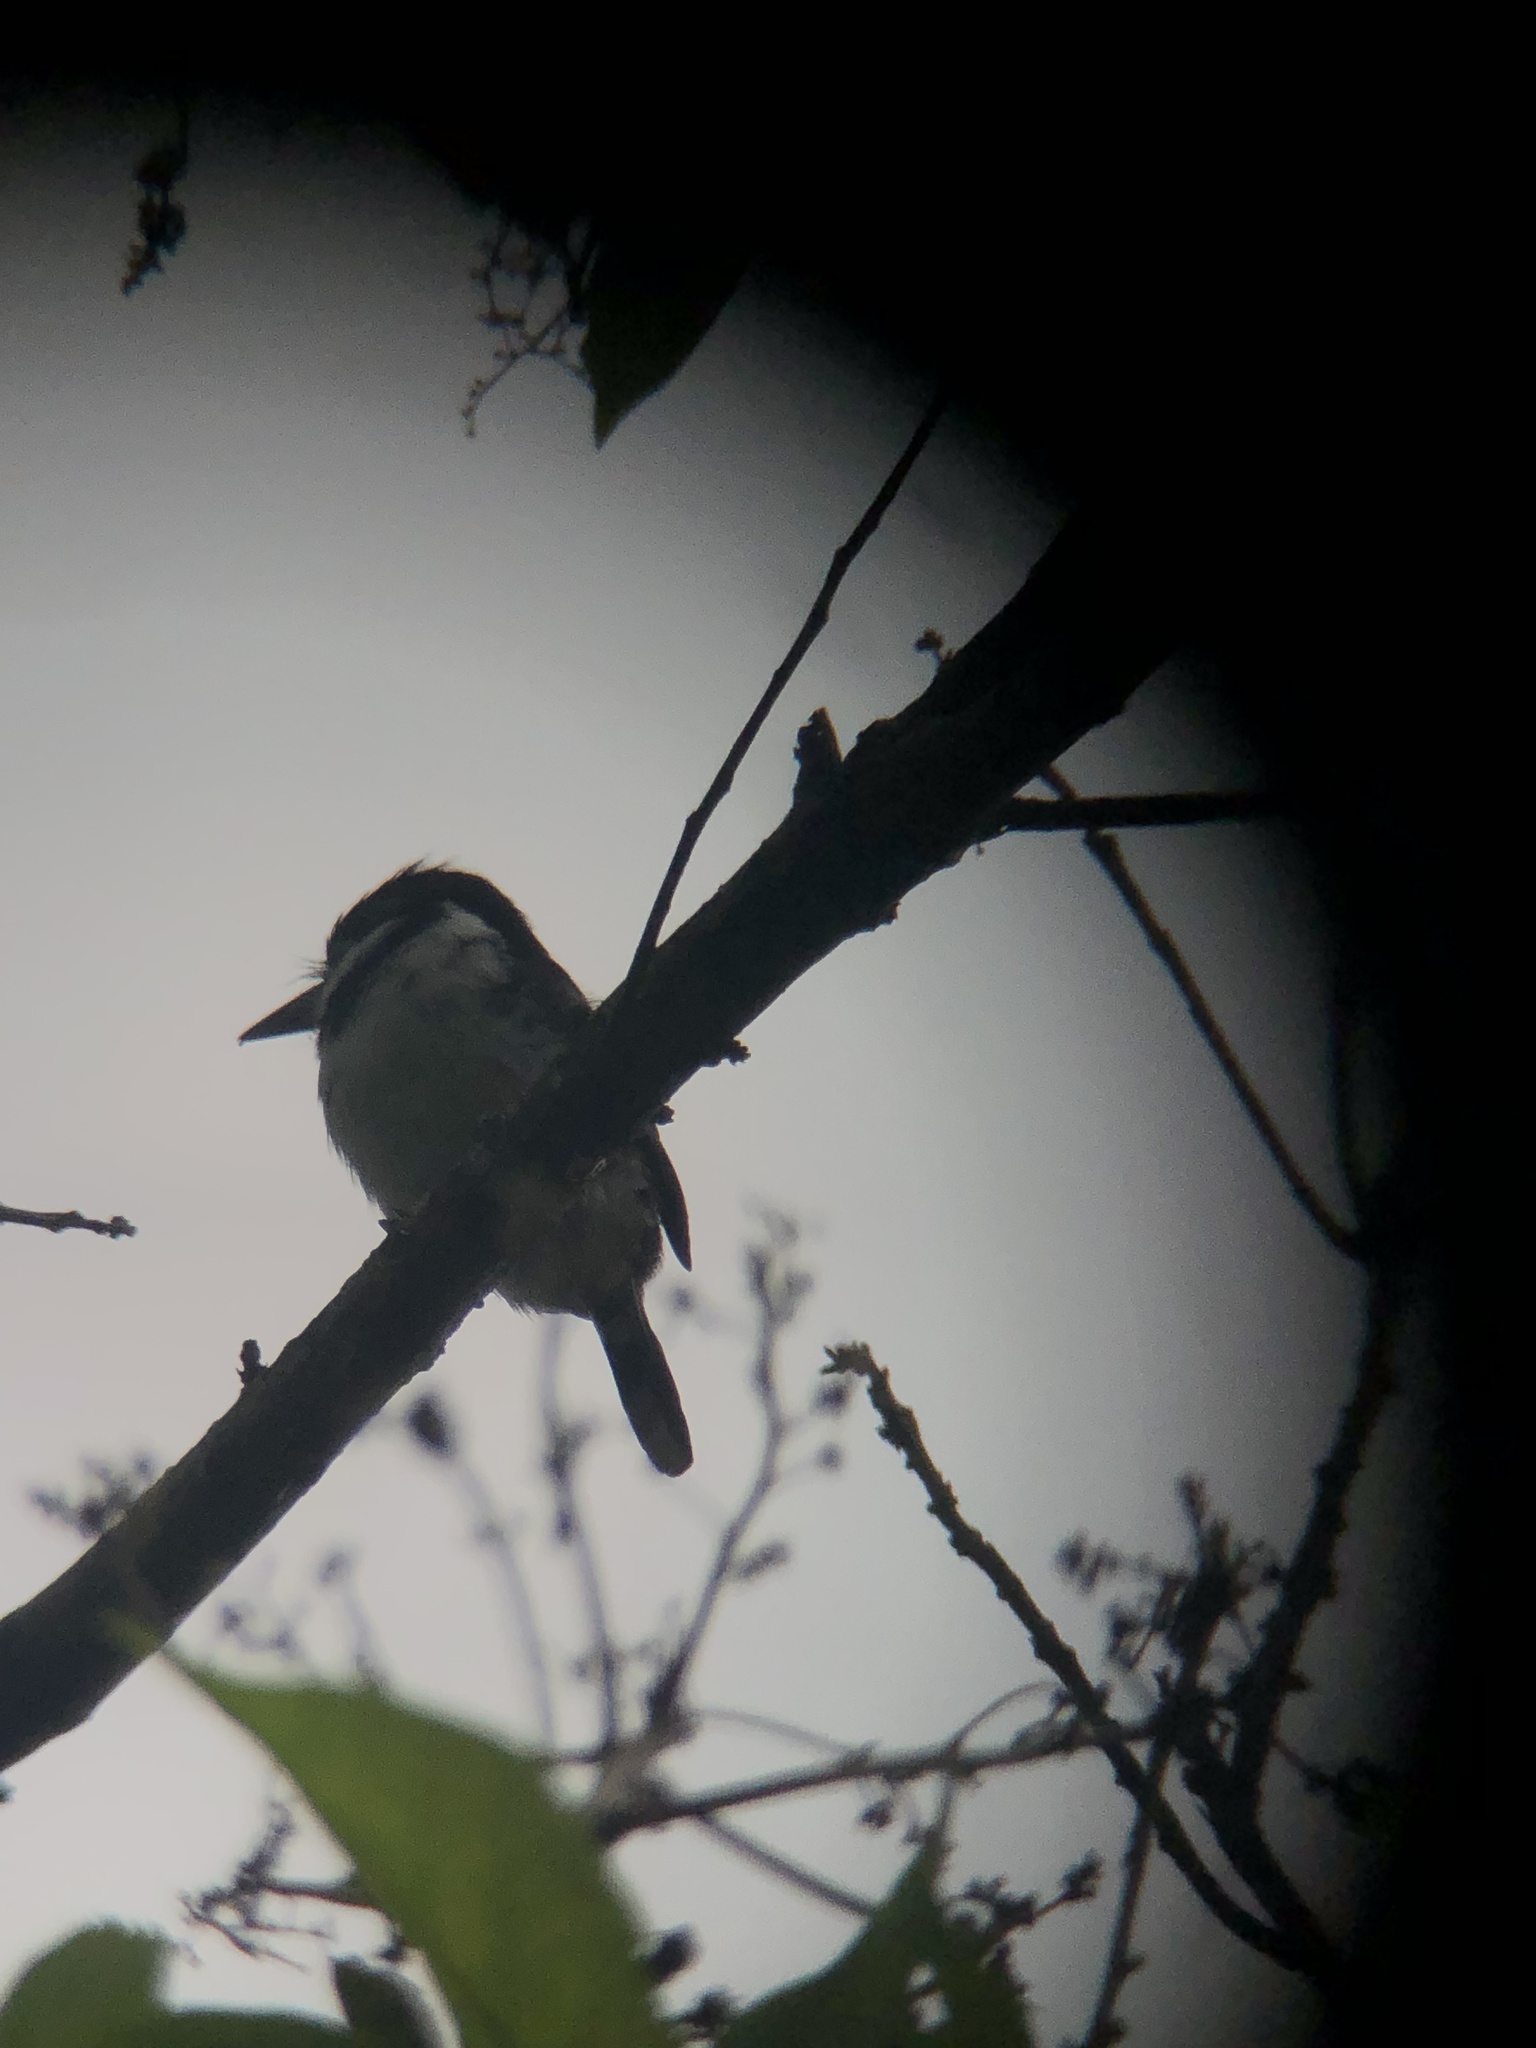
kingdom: Animalia
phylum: Chordata
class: Aves
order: Piciformes
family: Bucconidae
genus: Notharchus
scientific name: Notharchus tectus
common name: Pied puffbird
